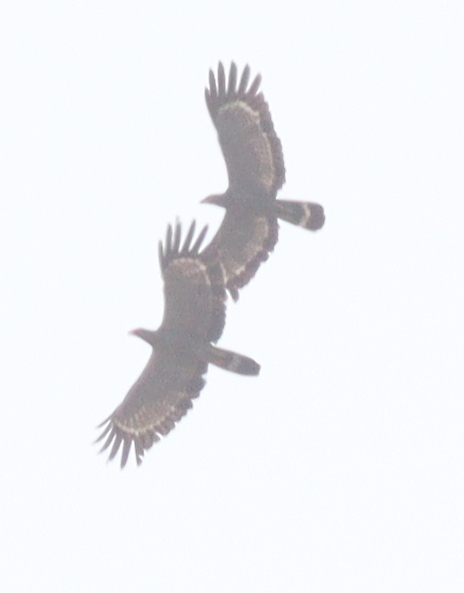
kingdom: Animalia
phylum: Chordata
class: Aves
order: Accipitriformes
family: Accipitridae
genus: Polyboroides
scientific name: Polyboroides typus
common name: African harrier-hawk
